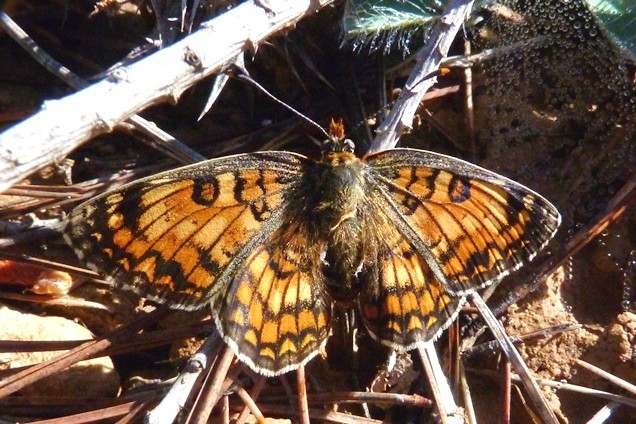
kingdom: Animalia
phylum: Arthropoda
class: Insecta
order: Lepidoptera
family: Nymphalidae
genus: Melitaea
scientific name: Melitaea phoebe
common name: Knapweed fritillary
